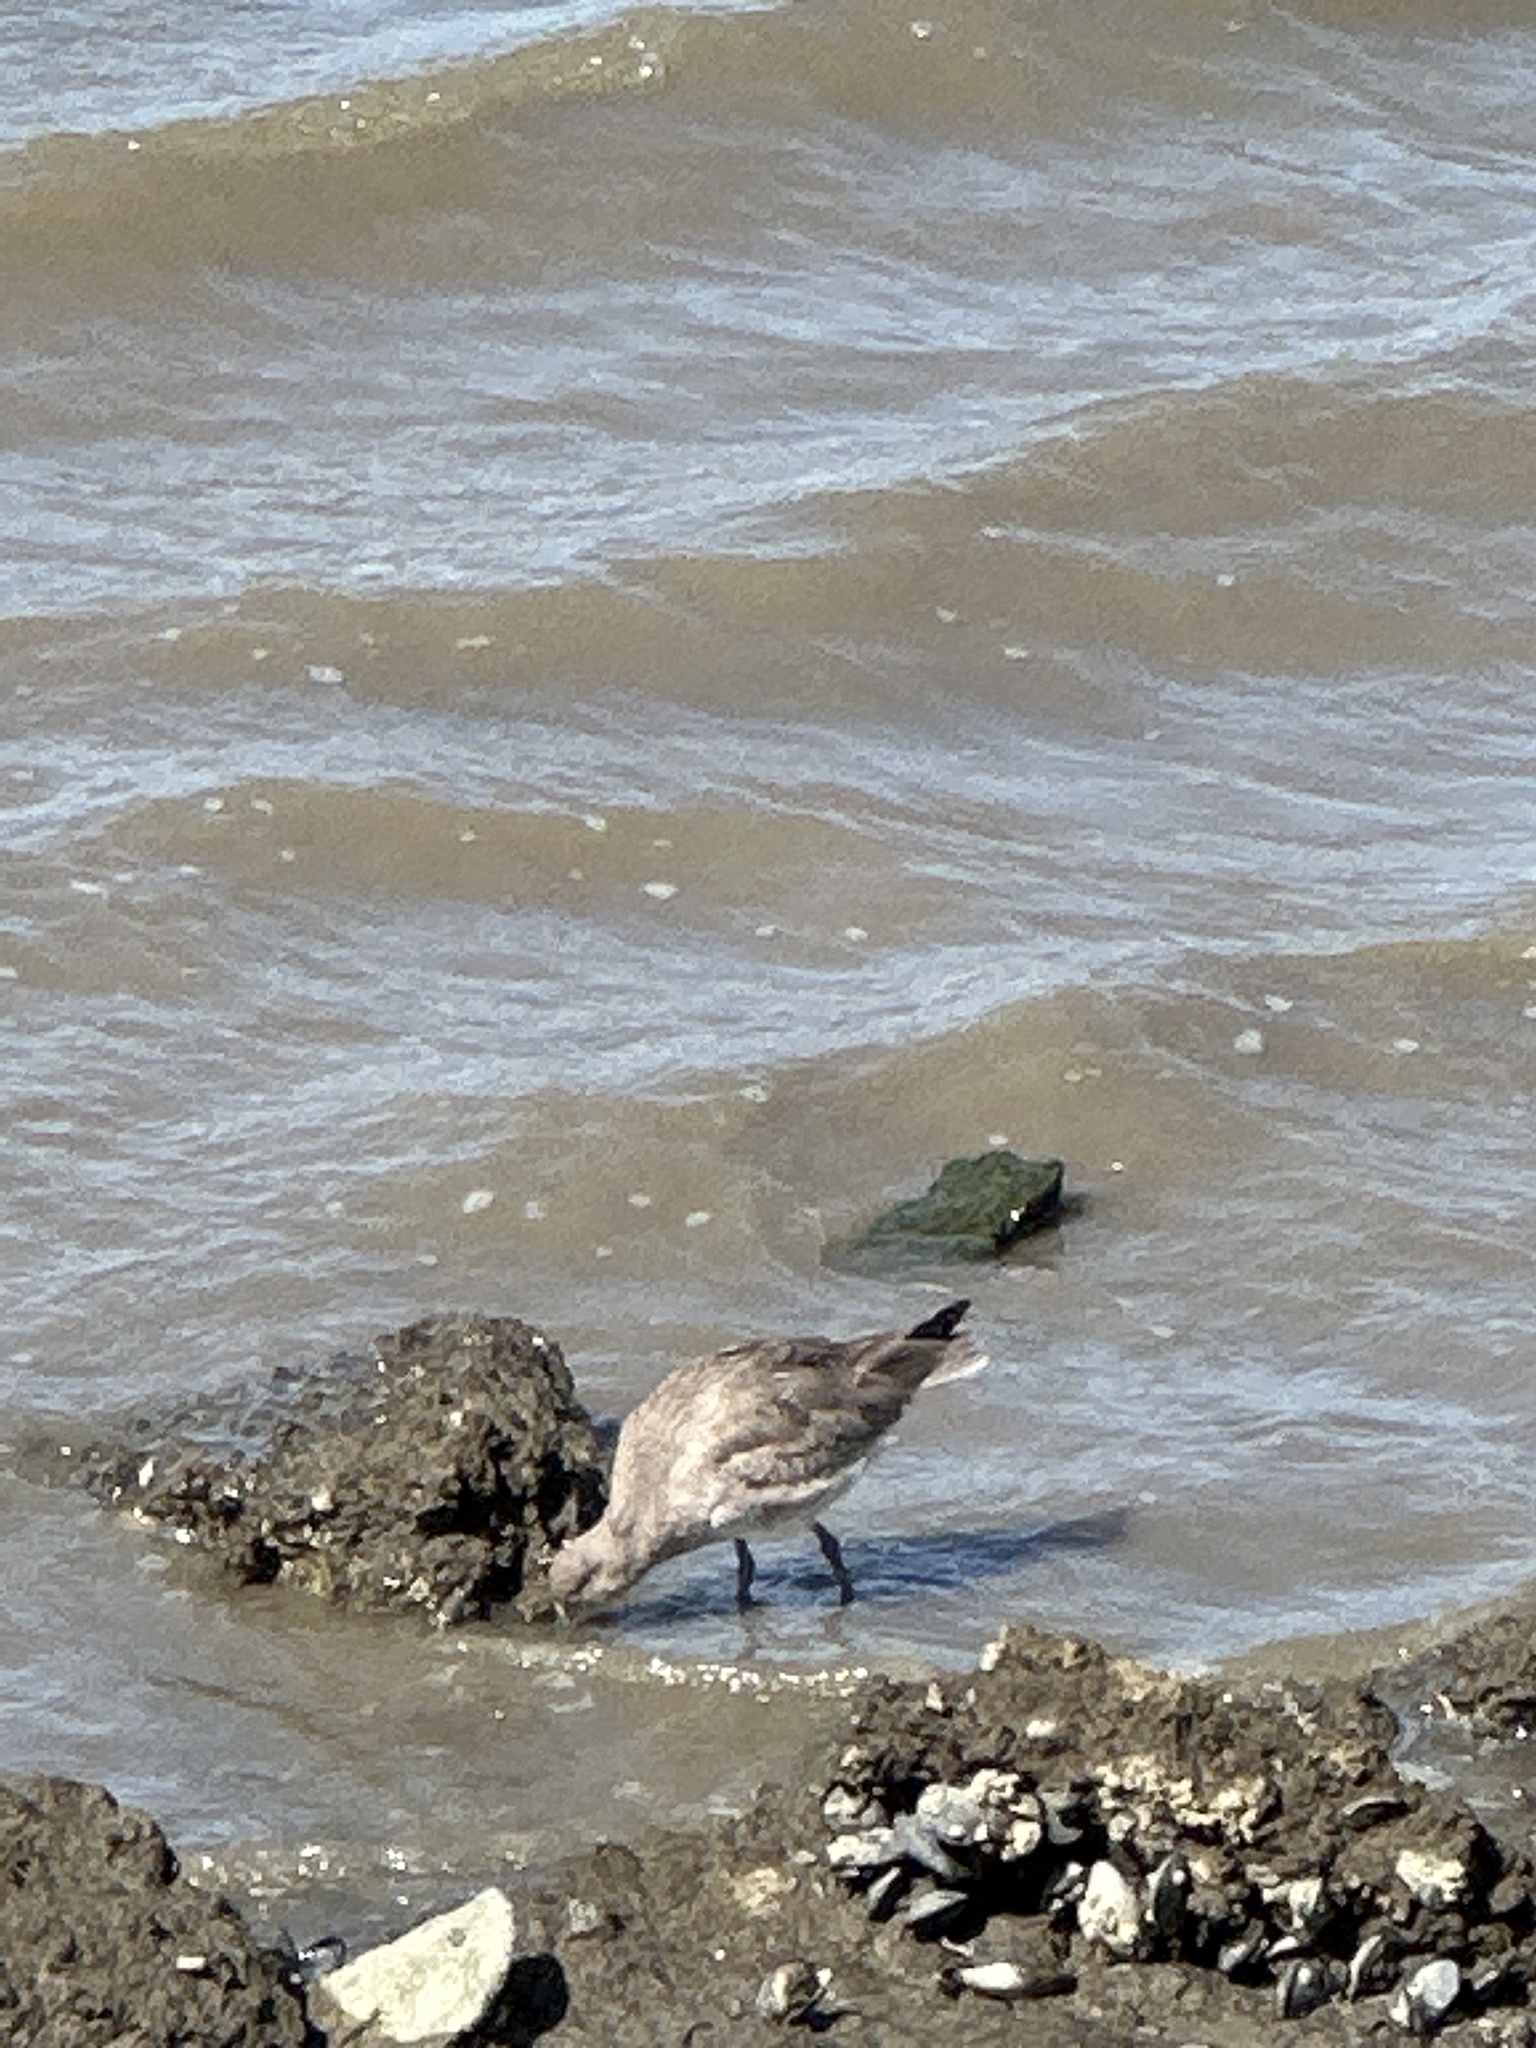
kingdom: Animalia
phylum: Chordata
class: Aves
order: Charadriiformes
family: Scolopacidae
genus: Tringa
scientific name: Tringa semipalmata
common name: Willet
